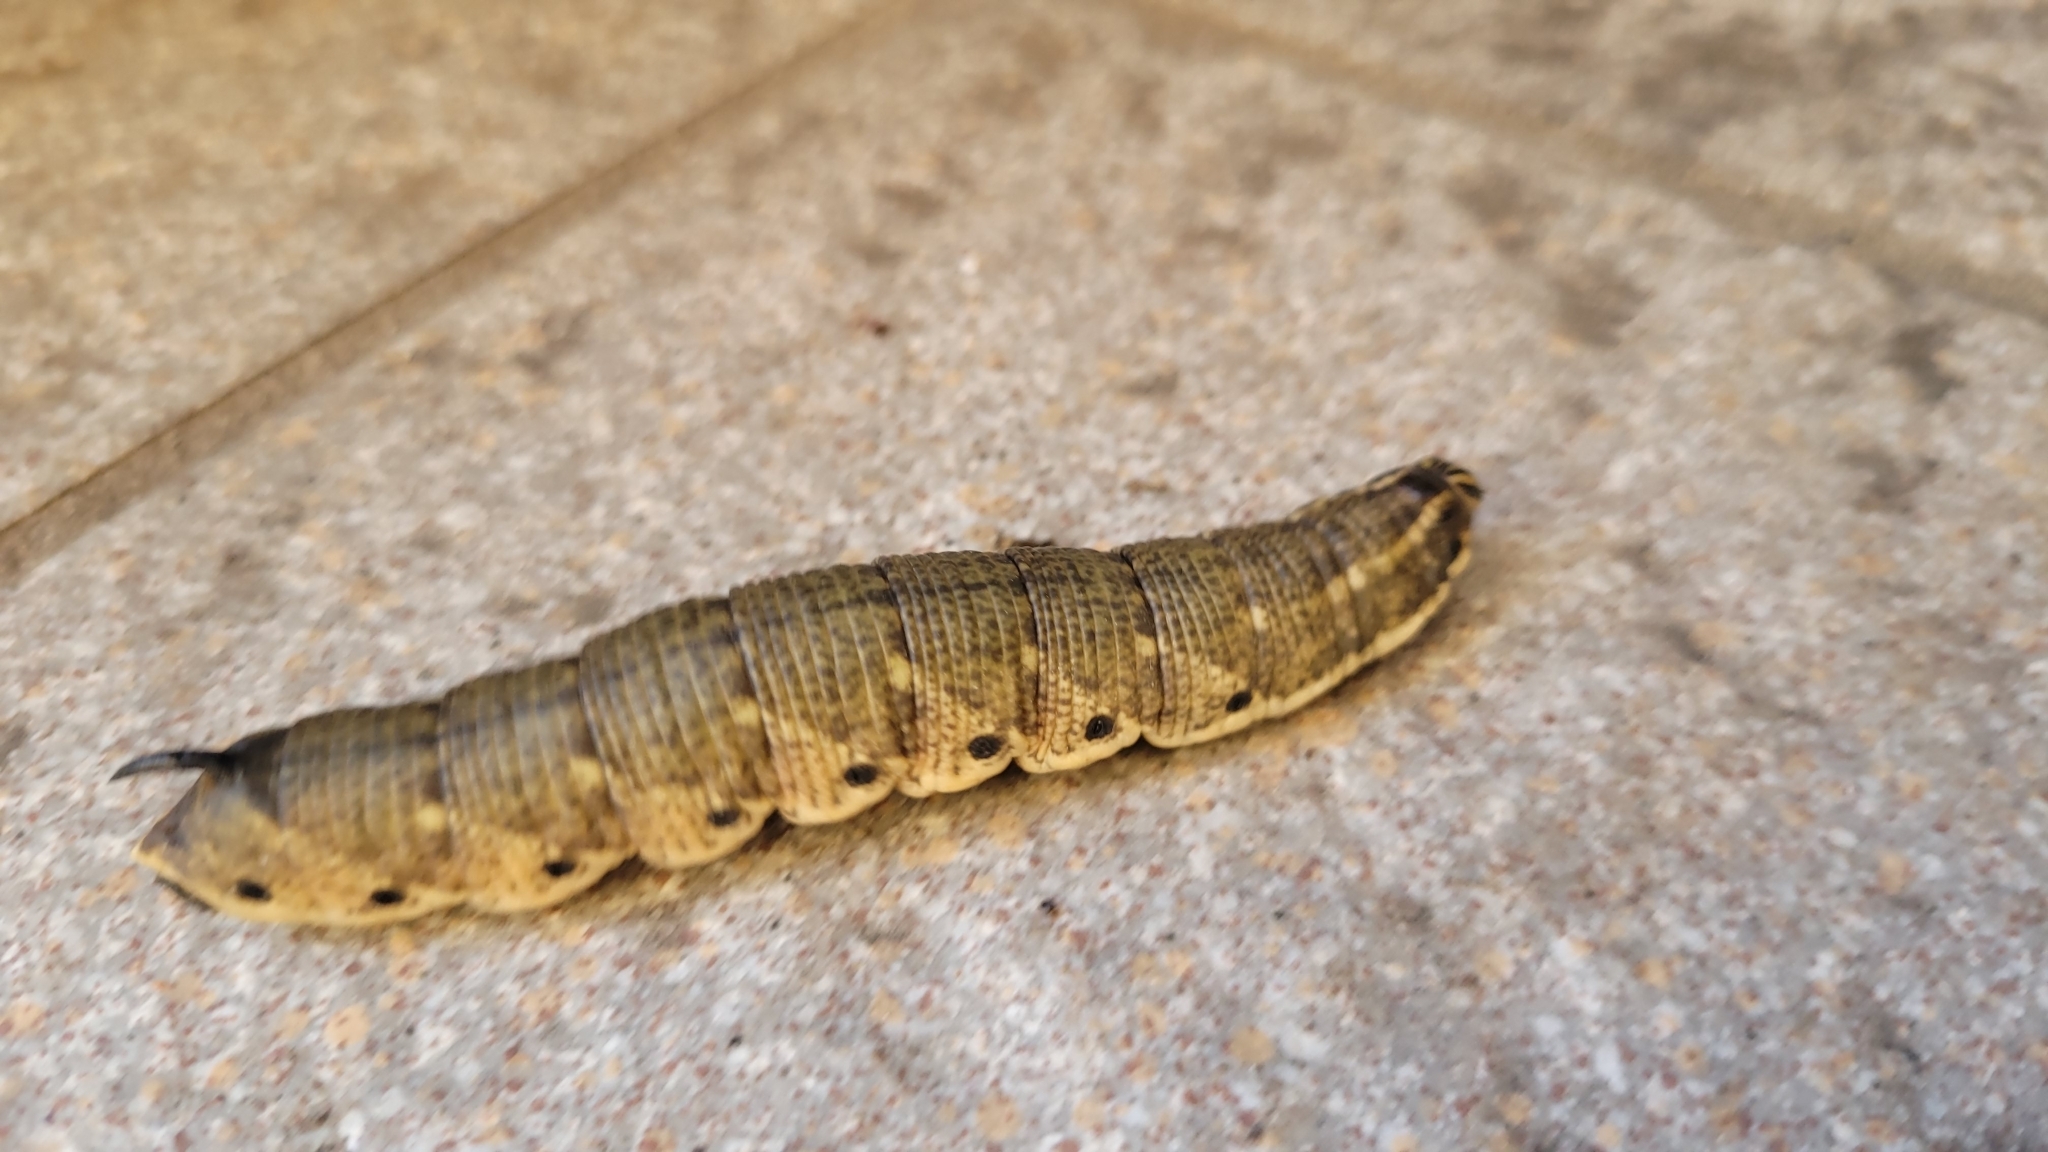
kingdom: Animalia
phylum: Arthropoda
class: Insecta
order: Lepidoptera
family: Sphingidae
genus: Agrius
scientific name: Agrius convolvuli
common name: Convolvulus hawkmoth
